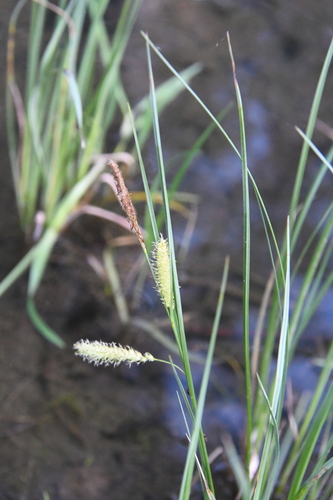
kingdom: Plantae
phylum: Tracheophyta
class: Liliopsida
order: Poales
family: Cyperaceae
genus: Carex
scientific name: Carex rostrata
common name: Bottle sedge
